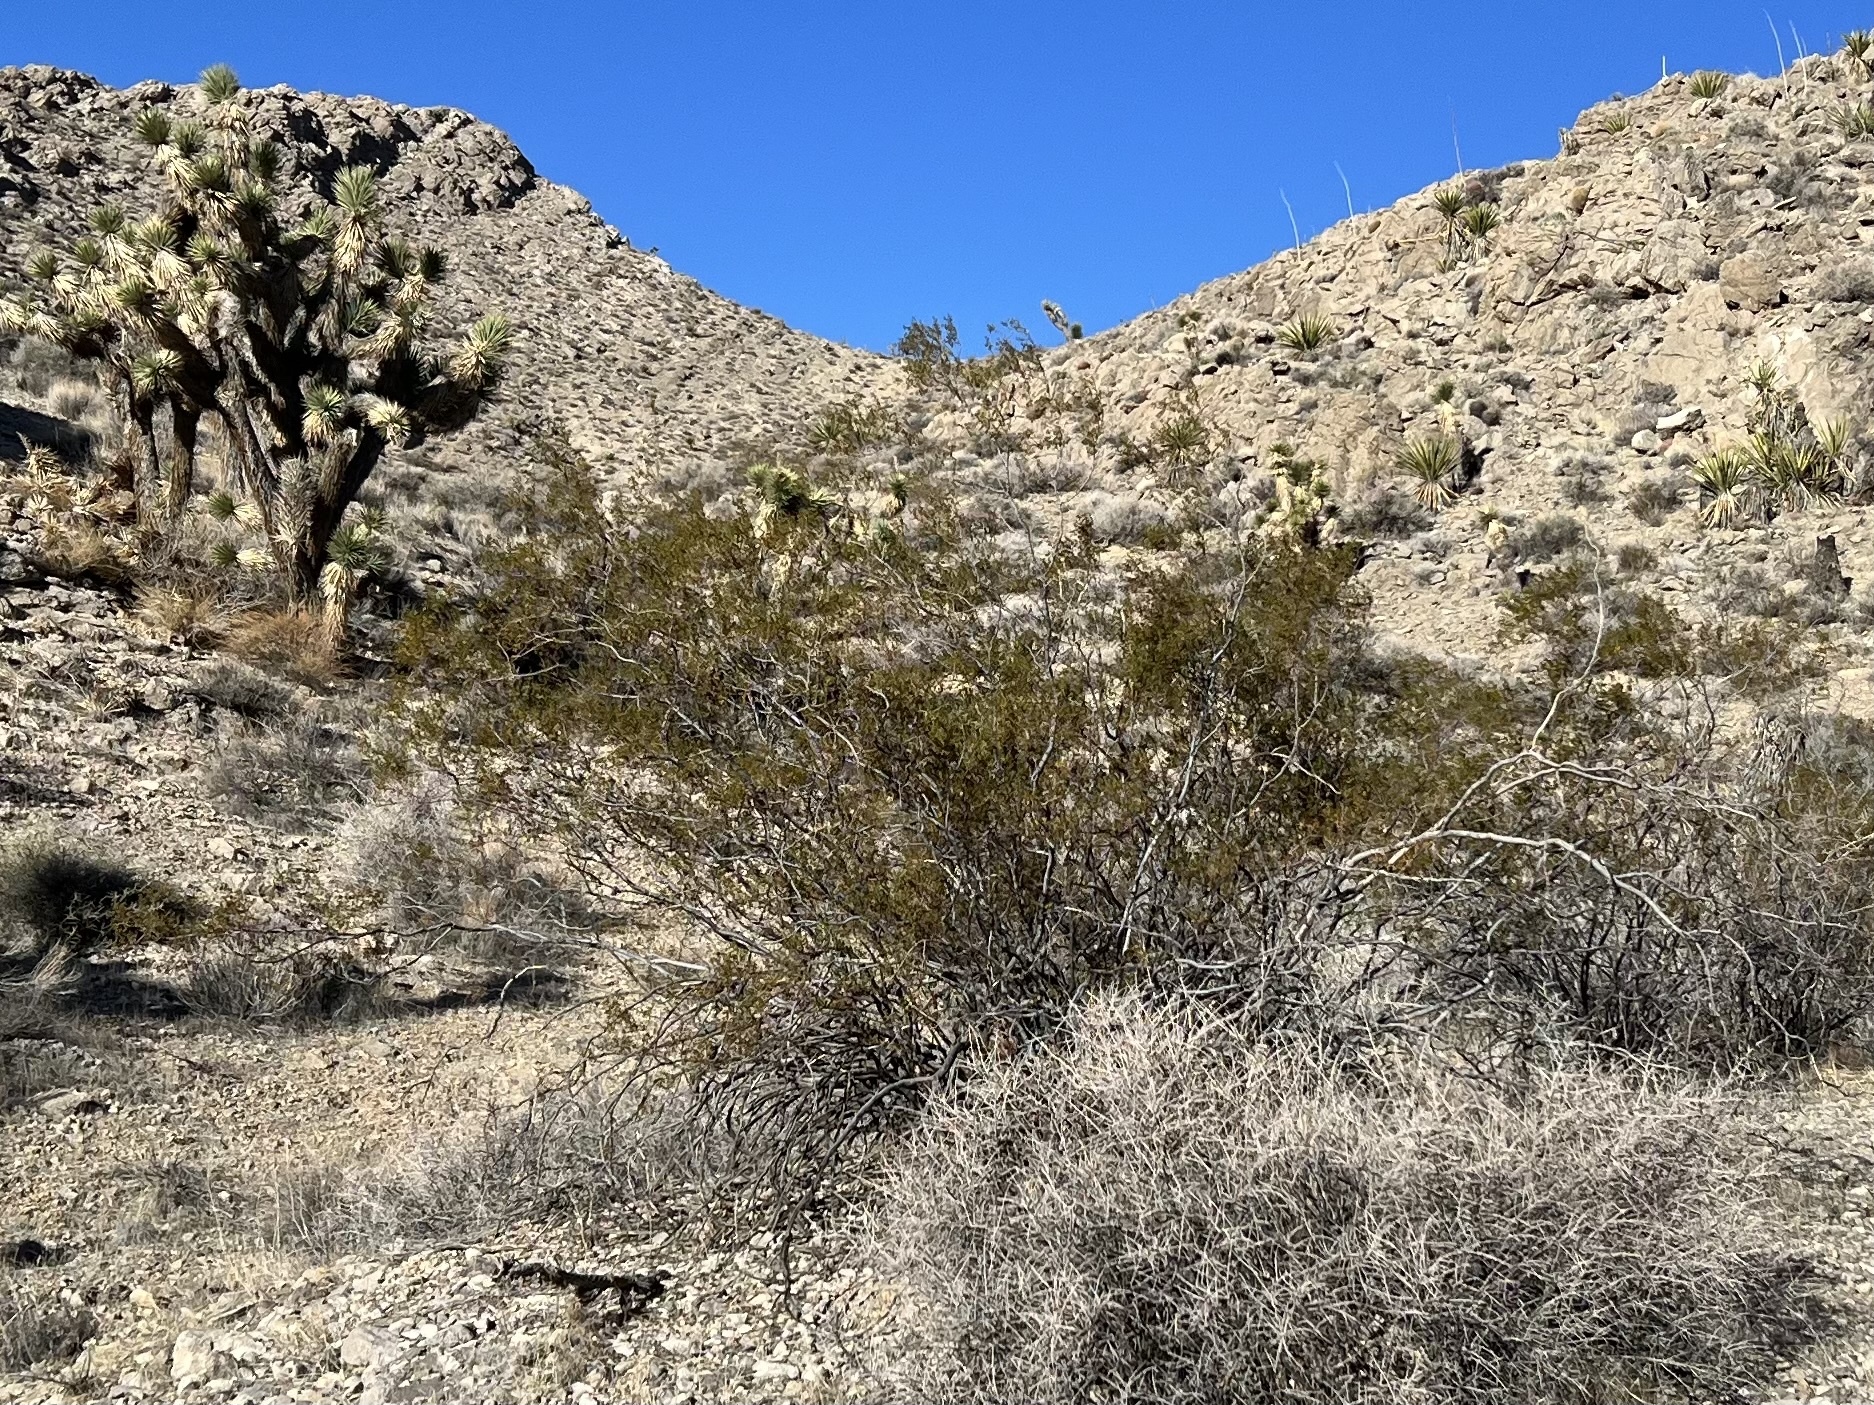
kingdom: Plantae
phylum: Tracheophyta
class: Magnoliopsida
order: Zygophyllales
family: Zygophyllaceae
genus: Larrea
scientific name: Larrea tridentata
